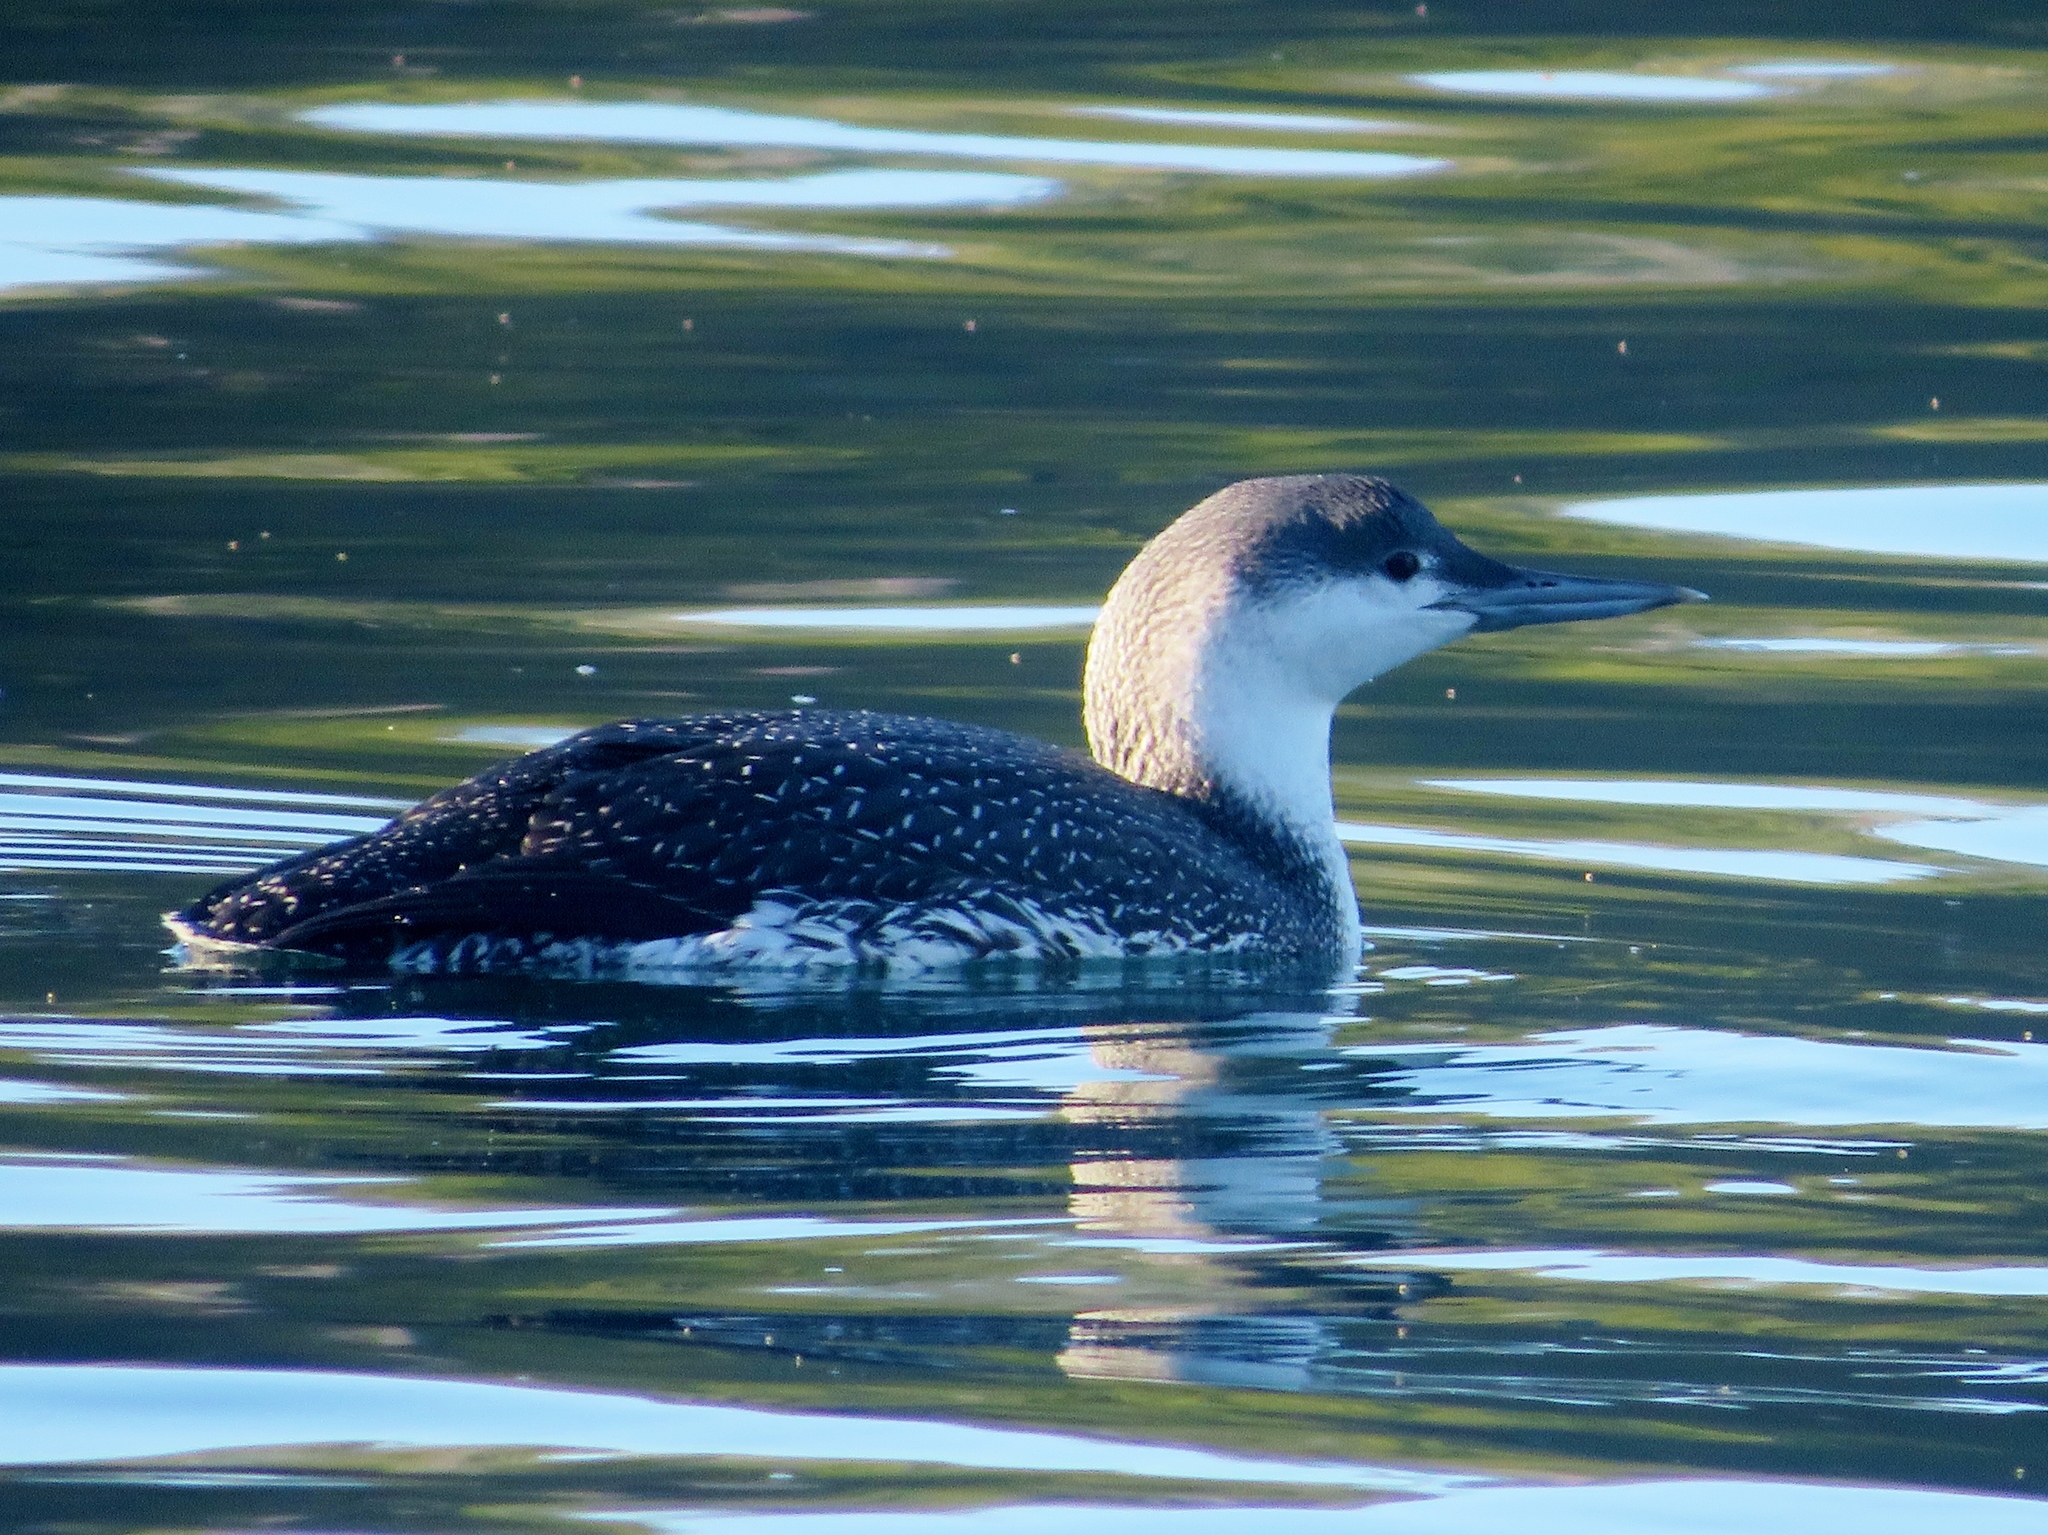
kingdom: Animalia
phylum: Chordata
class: Aves
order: Gaviiformes
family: Gaviidae
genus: Gavia
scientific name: Gavia stellata
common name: Red-throated loon
